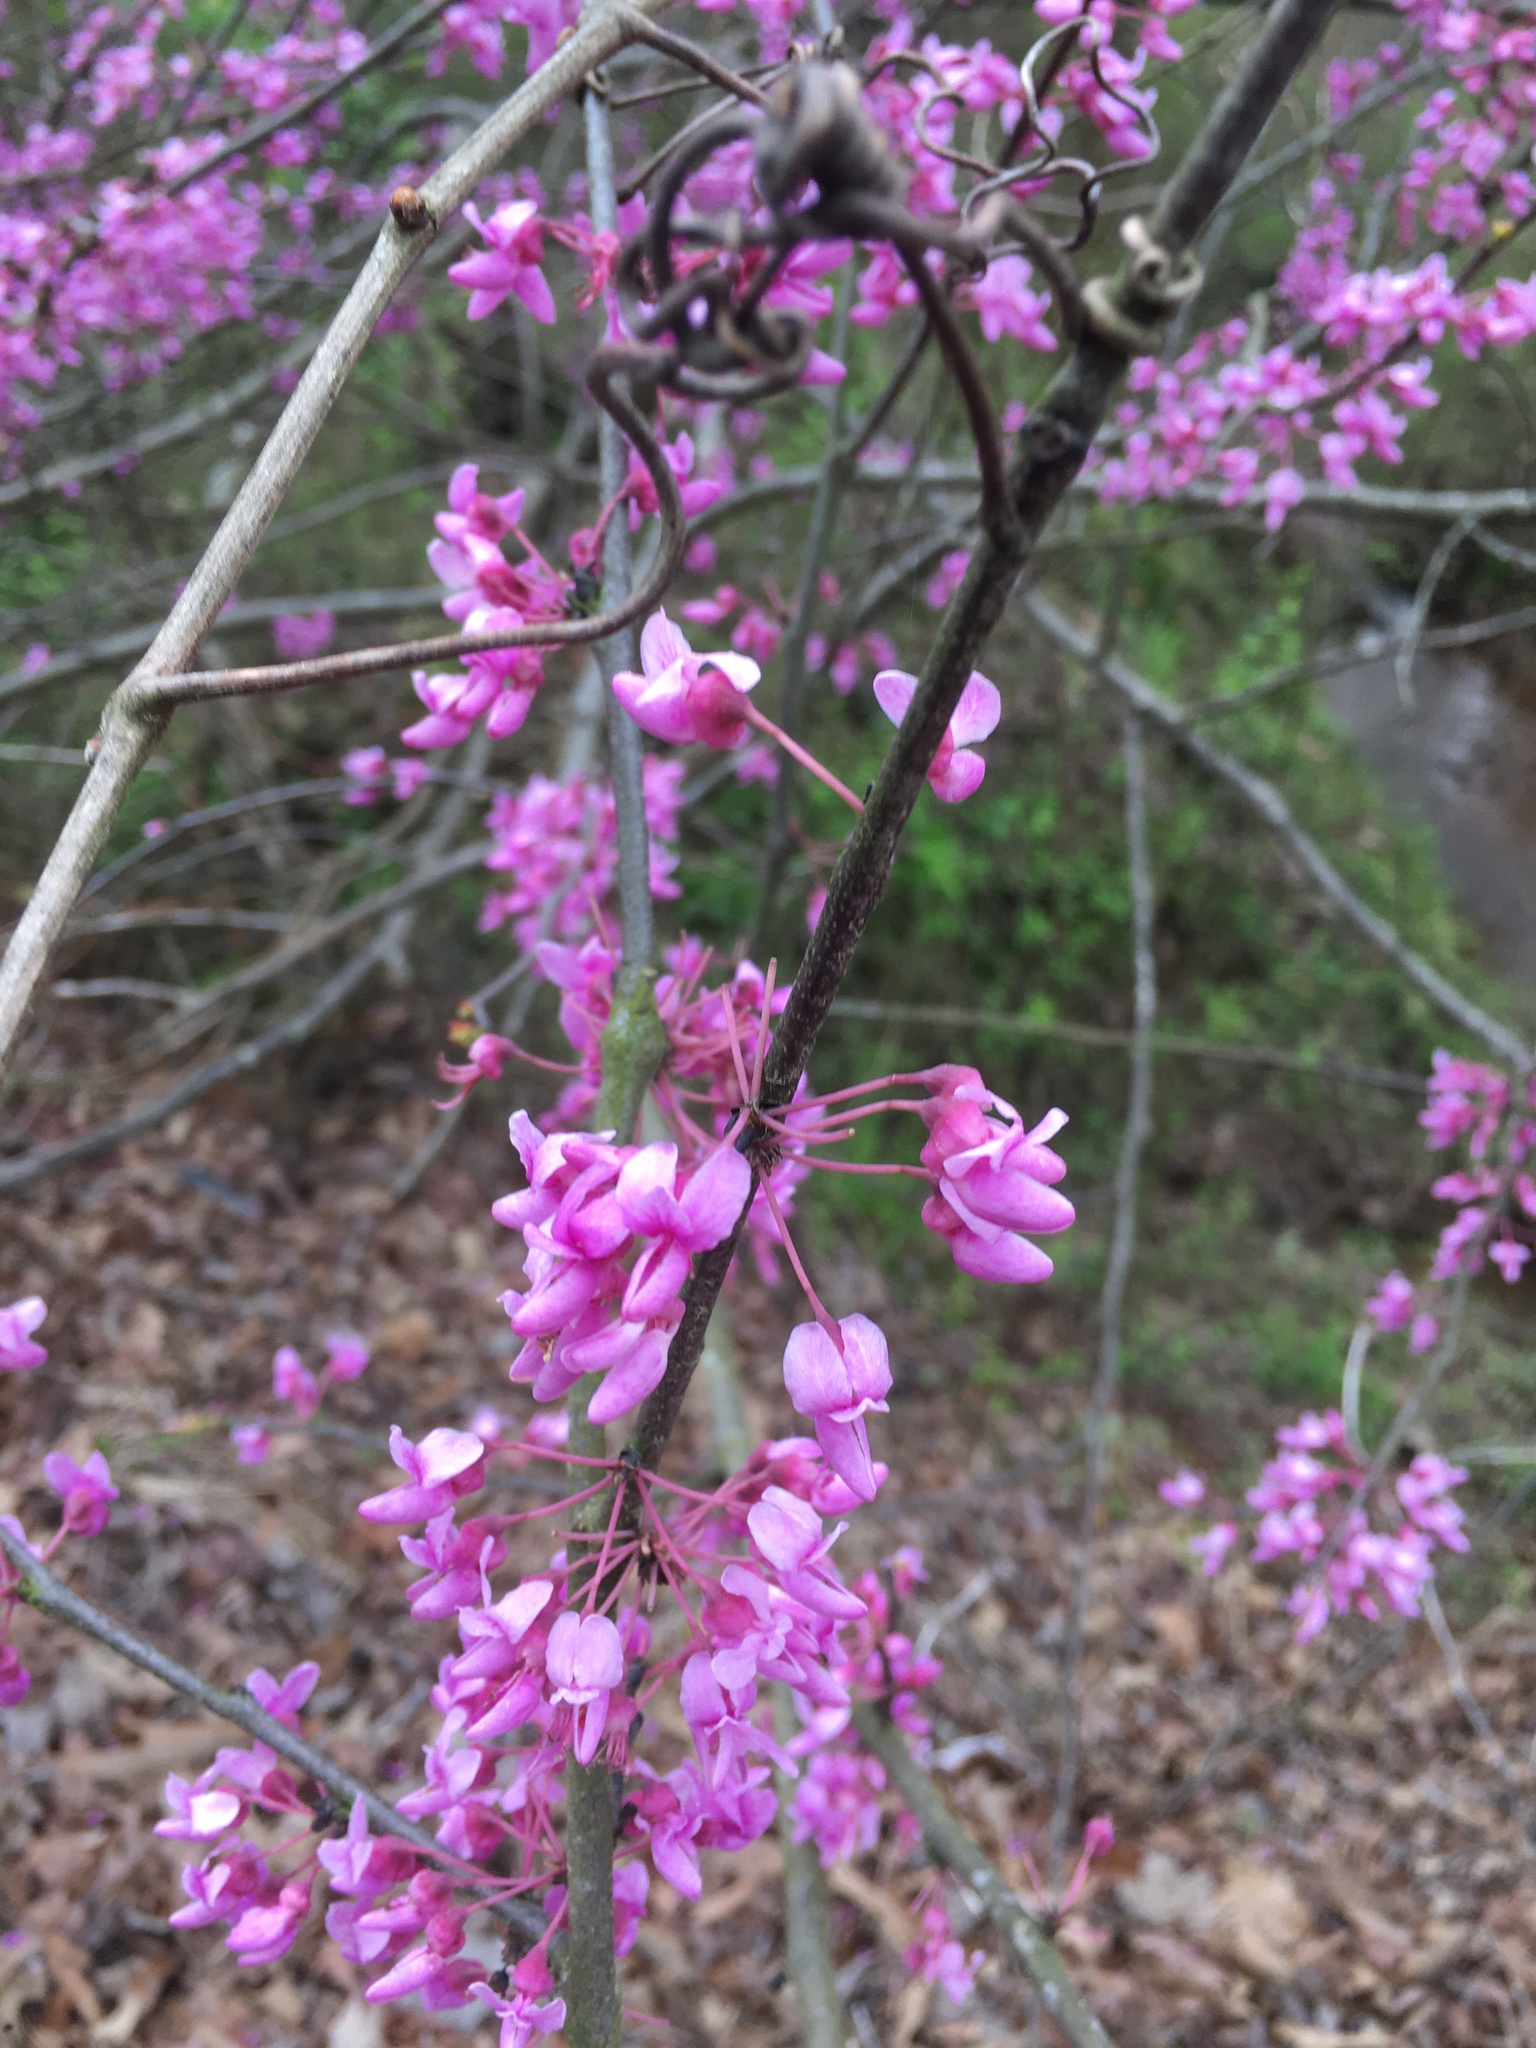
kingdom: Plantae
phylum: Tracheophyta
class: Magnoliopsida
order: Fabales
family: Fabaceae
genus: Cercis
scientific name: Cercis canadensis
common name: Eastern redbud
